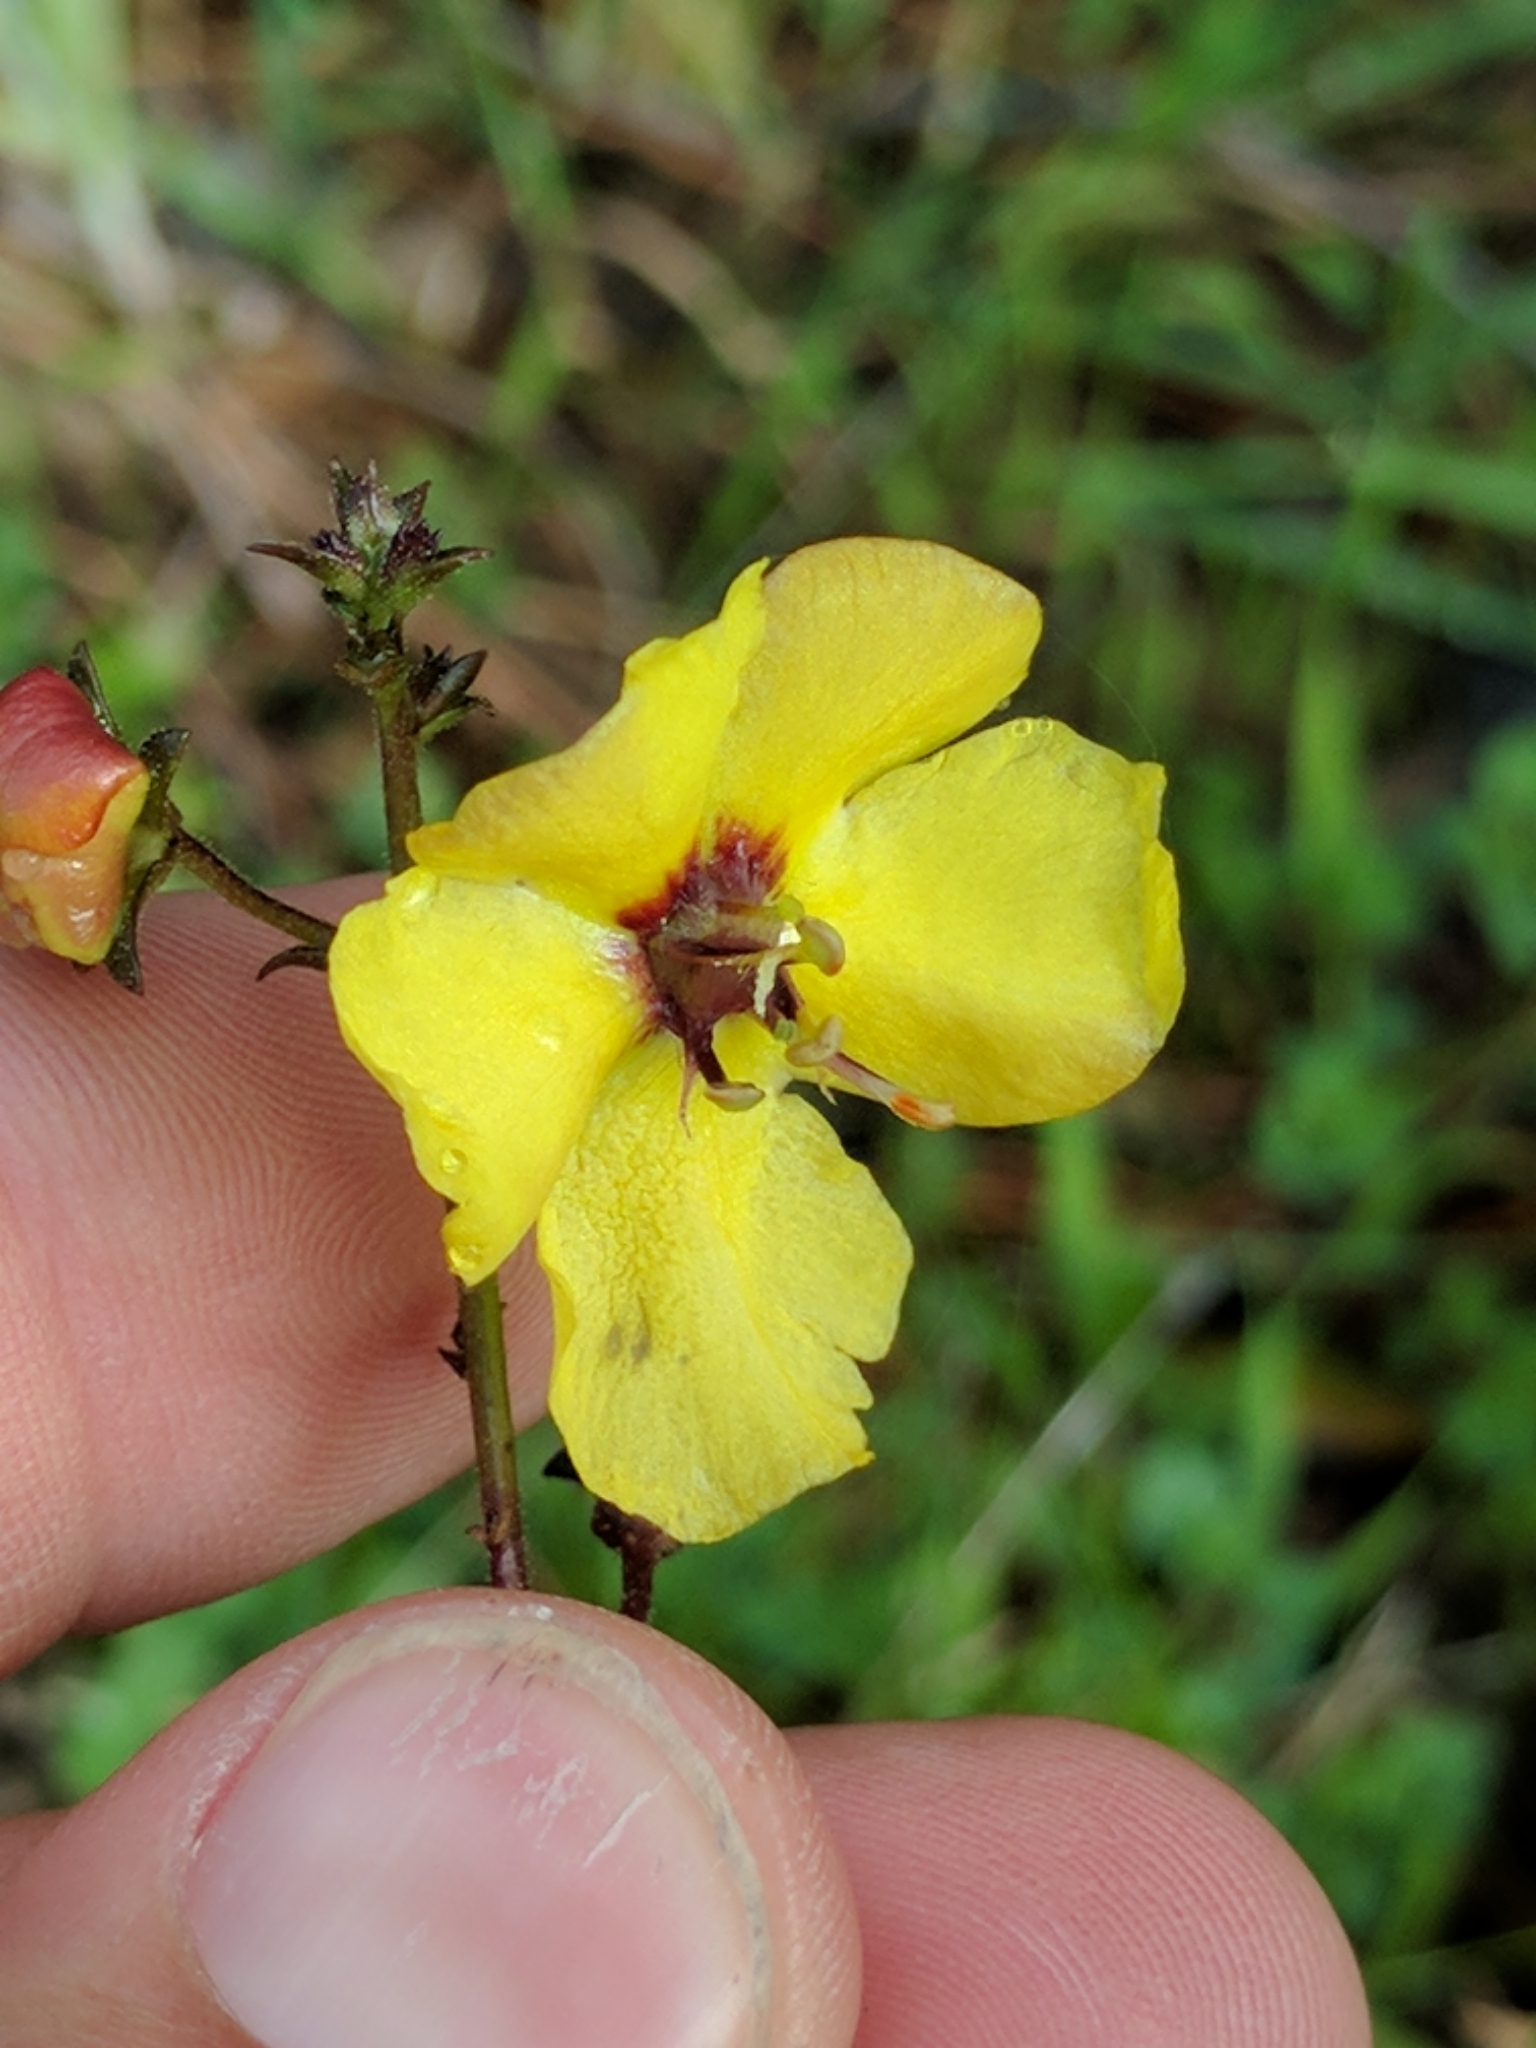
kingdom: Plantae
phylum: Tracheophyta
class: Magnoliopsida
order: Lamiales
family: Scrophulariaceae
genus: Verbascum
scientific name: Verbascum blattaria
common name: Moth mullein
